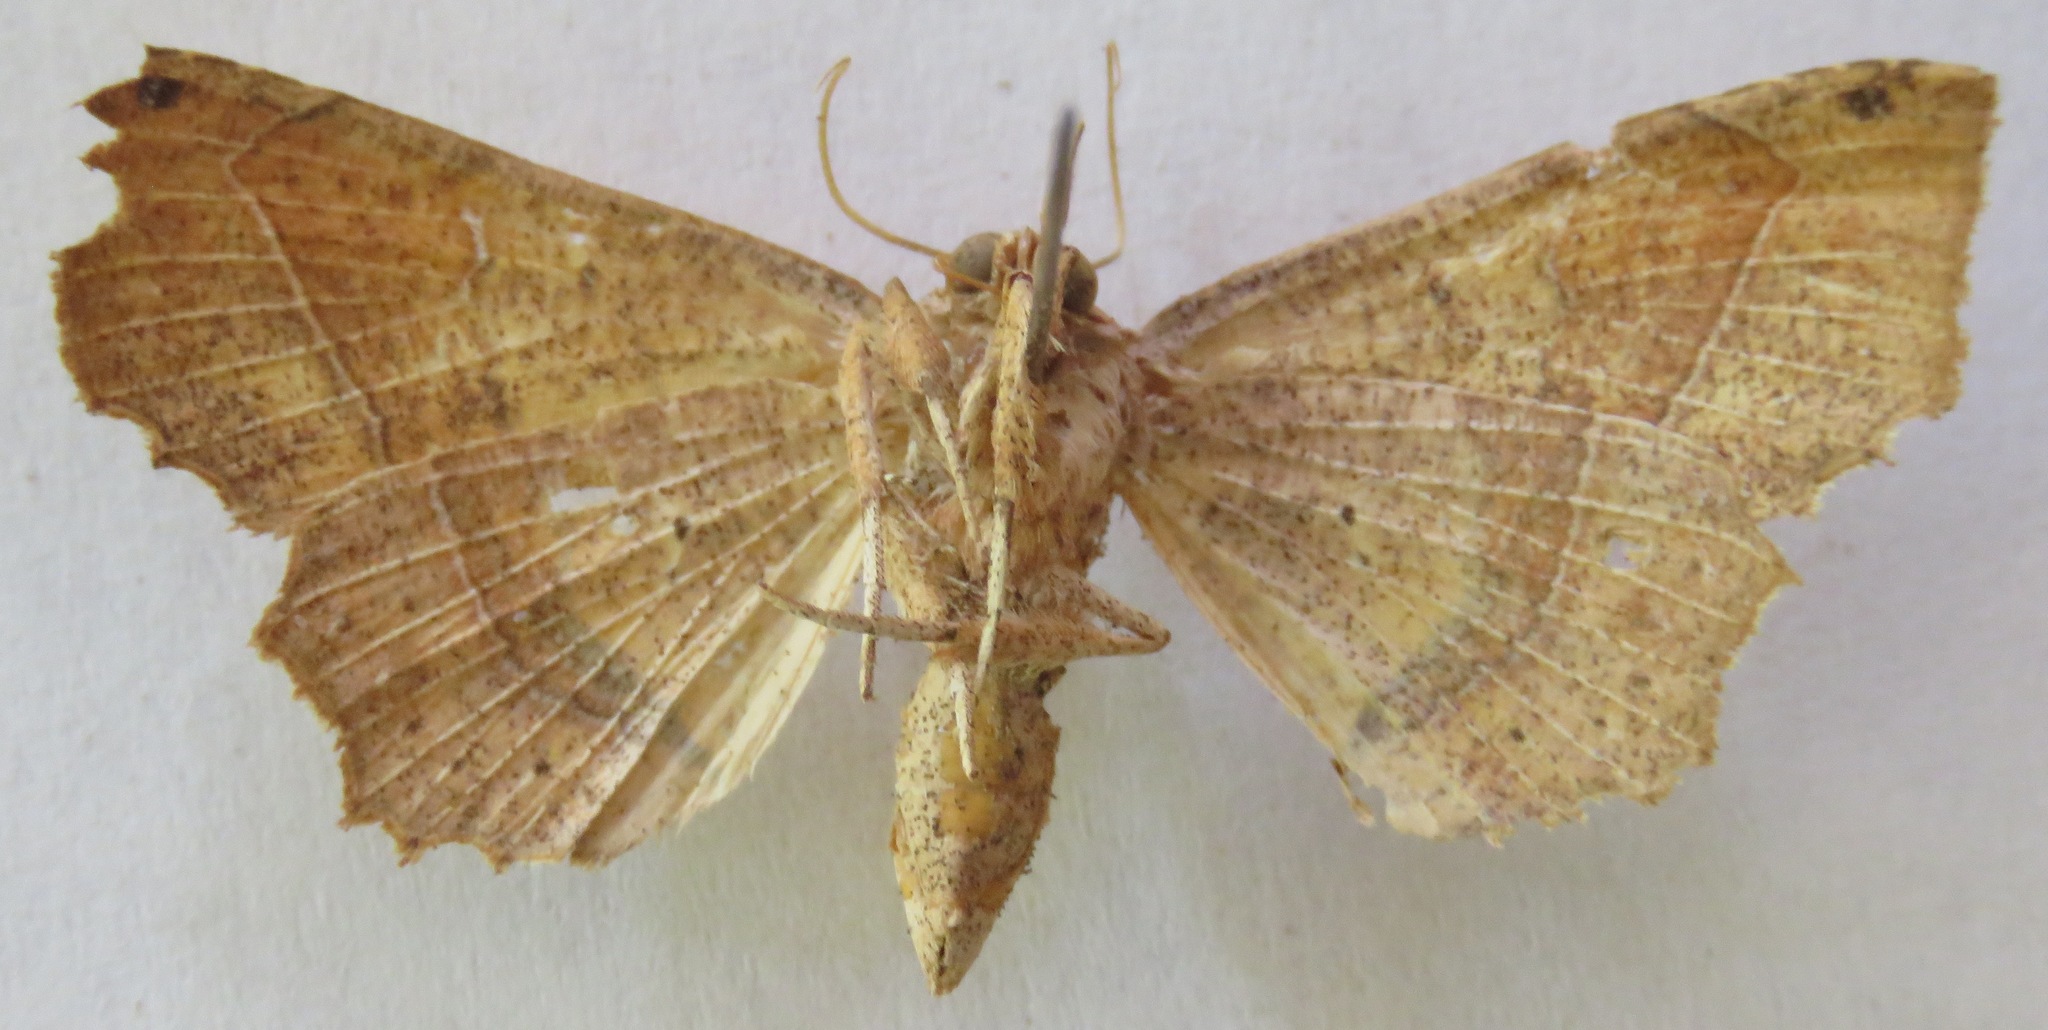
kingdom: Animalia
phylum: Arthropoda
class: Insecta
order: Lepidoptera
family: Erebidae
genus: Syllectra
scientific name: Syllectra erycata
